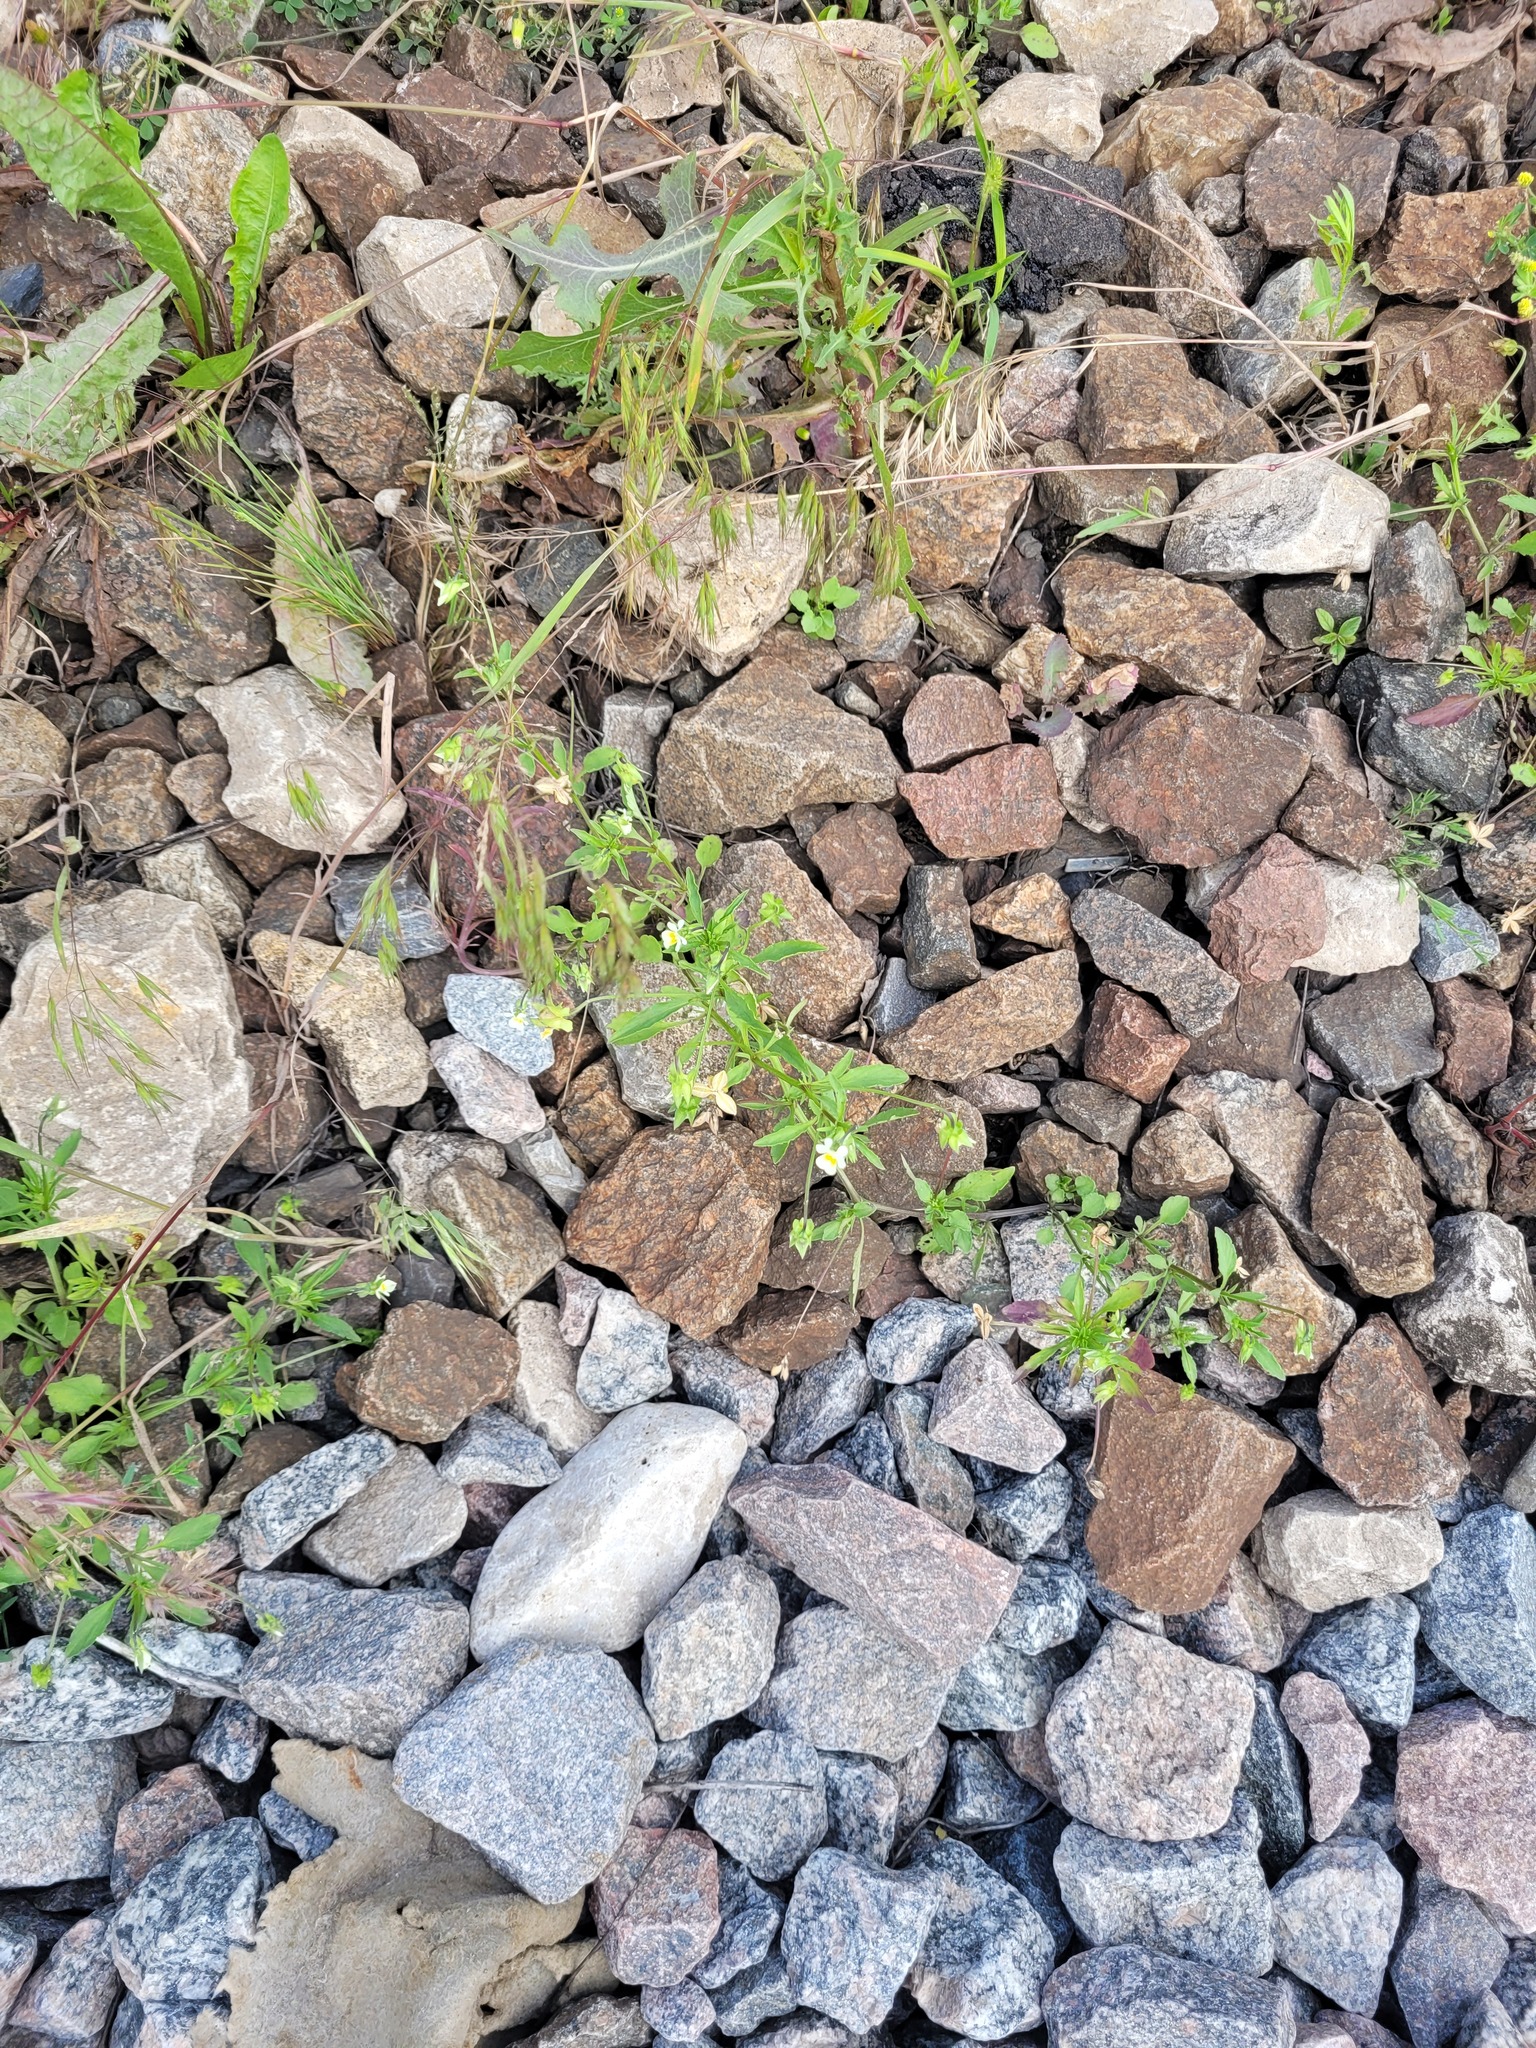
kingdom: Plantae
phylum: Tracheophyta
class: Magnoliopsida
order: Malpighiales
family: Violaceae
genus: Viola
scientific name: Viola arvensis
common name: Field pansy
